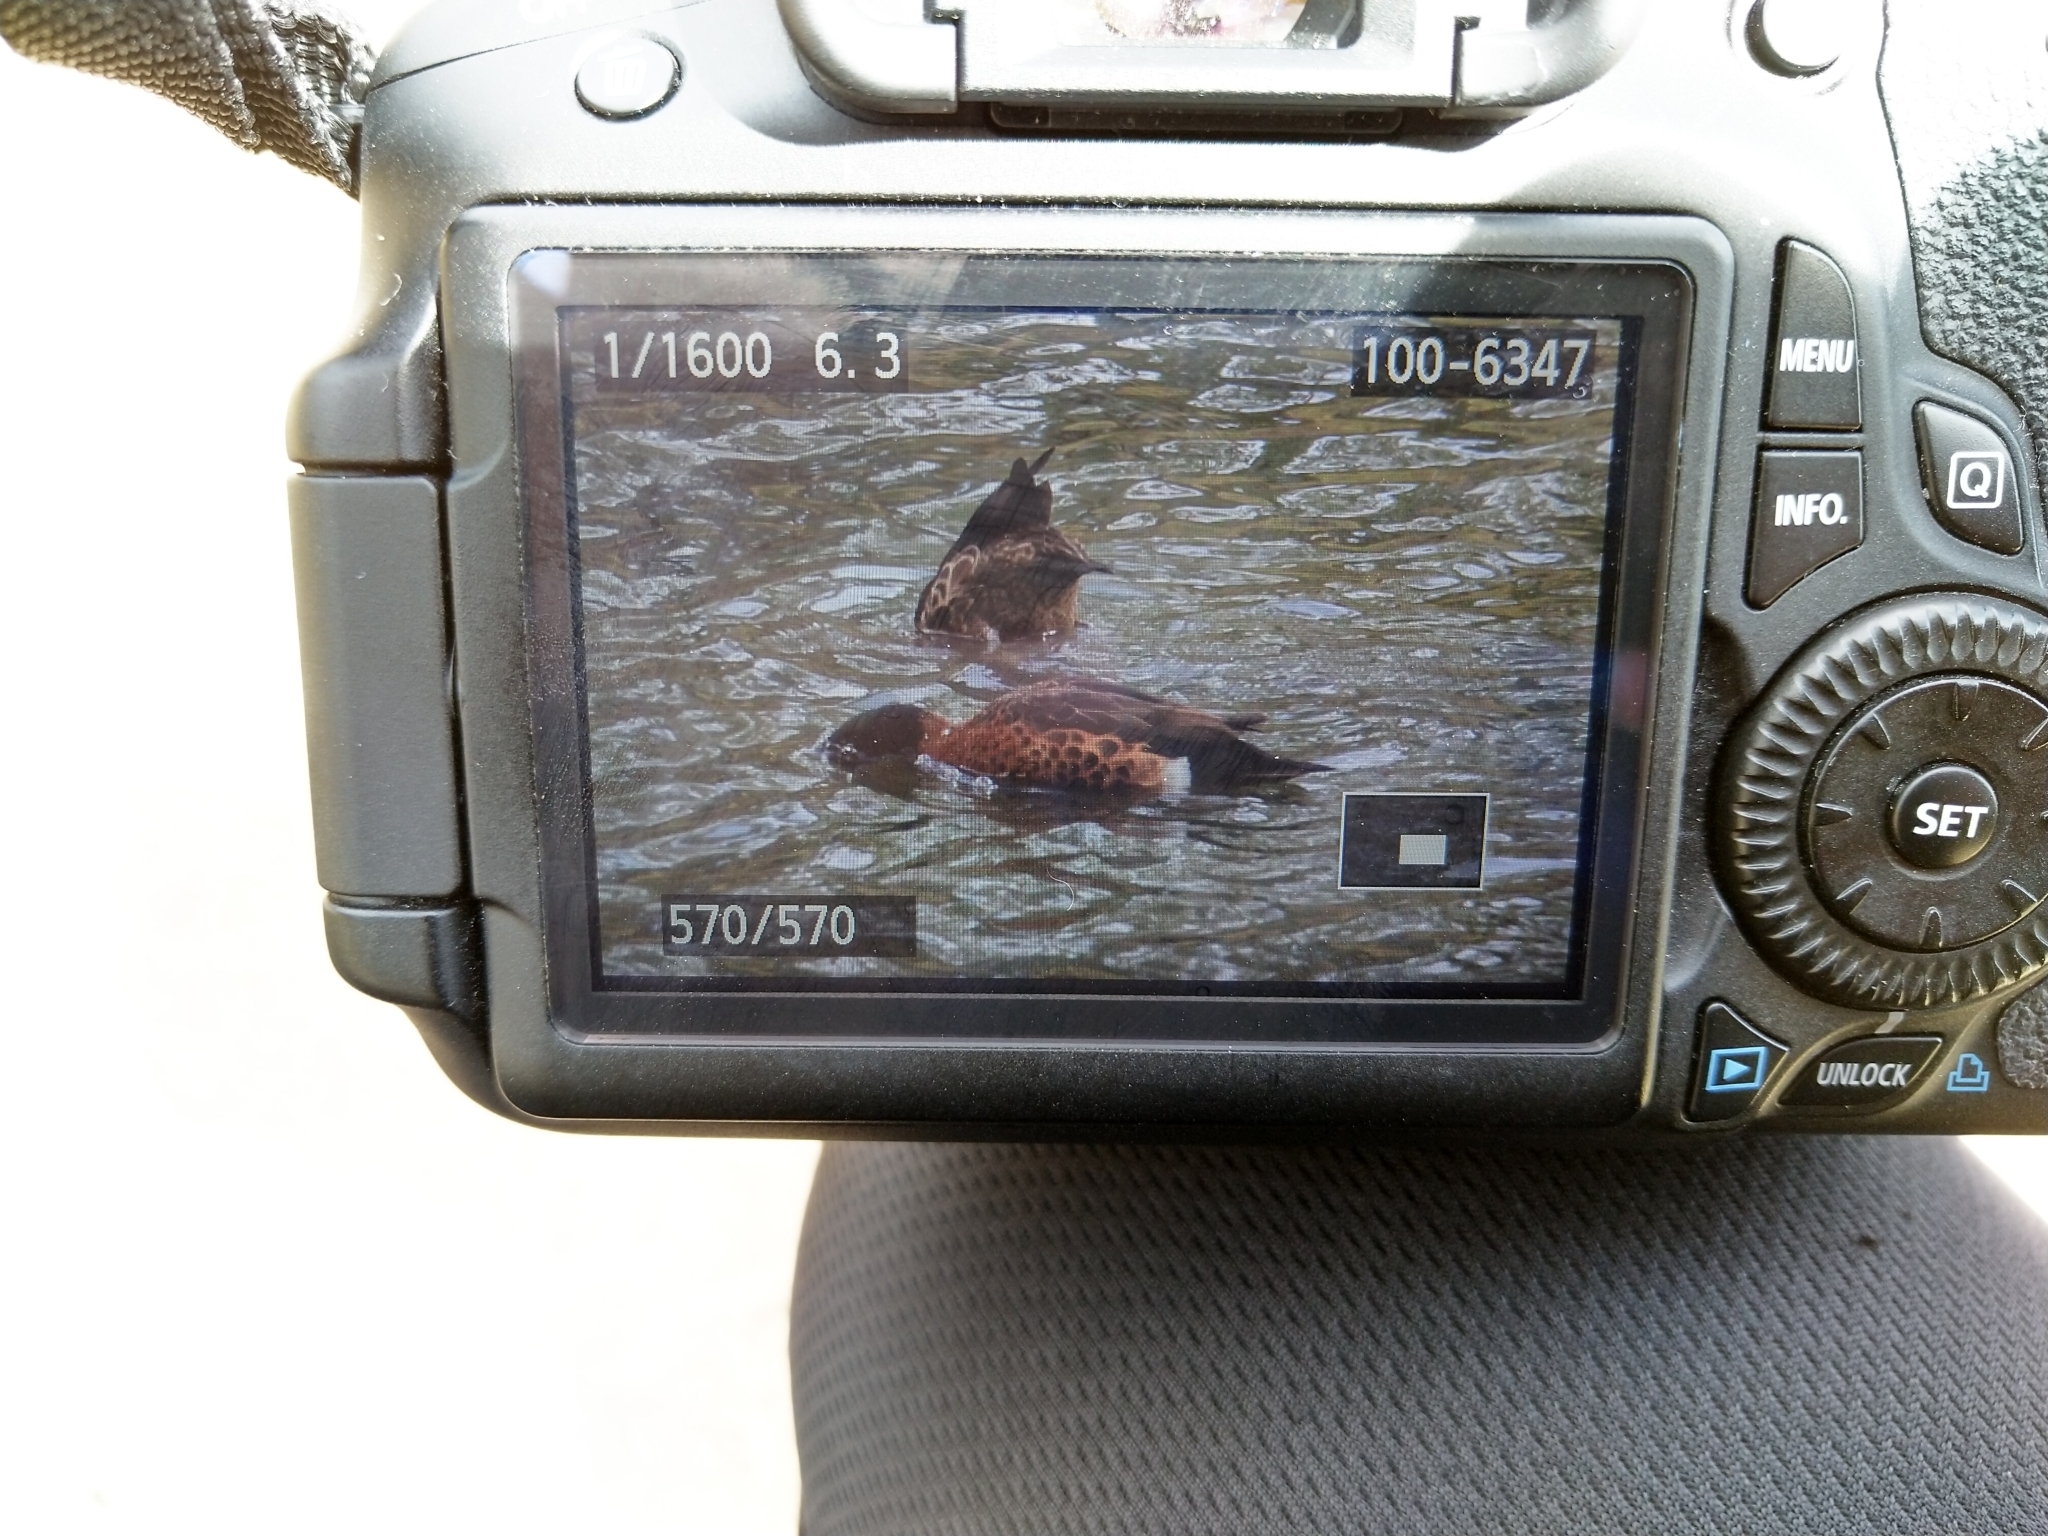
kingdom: Animalia
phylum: Chordata
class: Aves
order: Anseriformes
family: Anatidae
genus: Anas
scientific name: Anas castanea
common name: Chestnut teal
